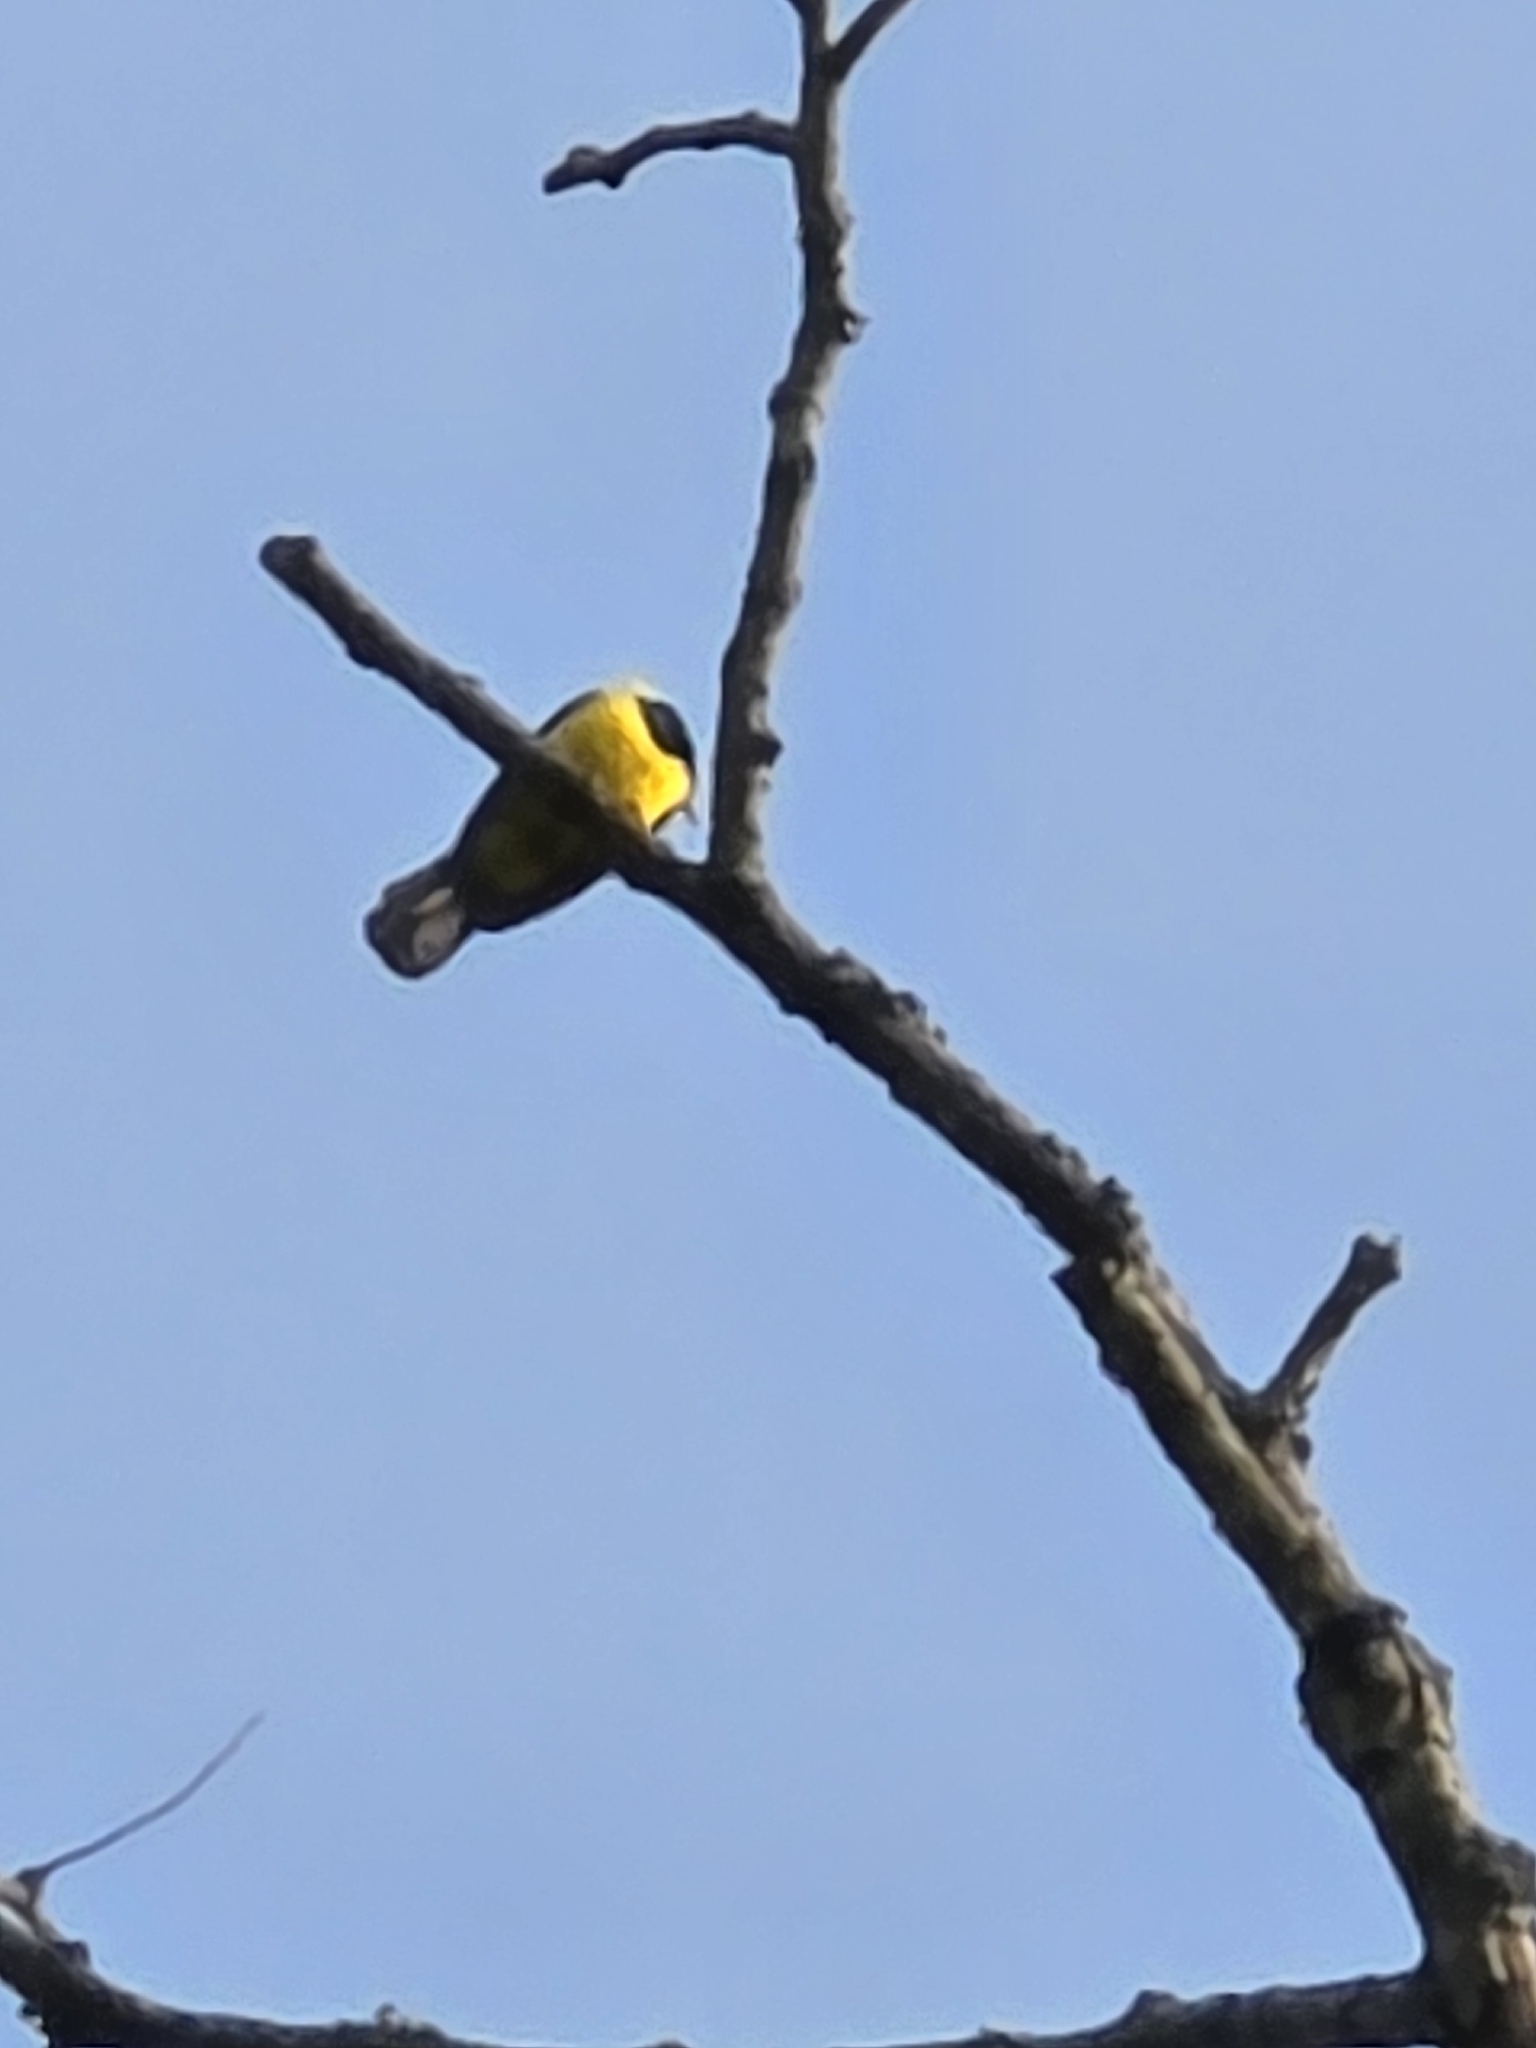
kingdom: Animalia
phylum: Chordata
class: Aves
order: Passeriformes
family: Paridae
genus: Melanochlora
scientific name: Melanochlora sultanea
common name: Sultan tit
